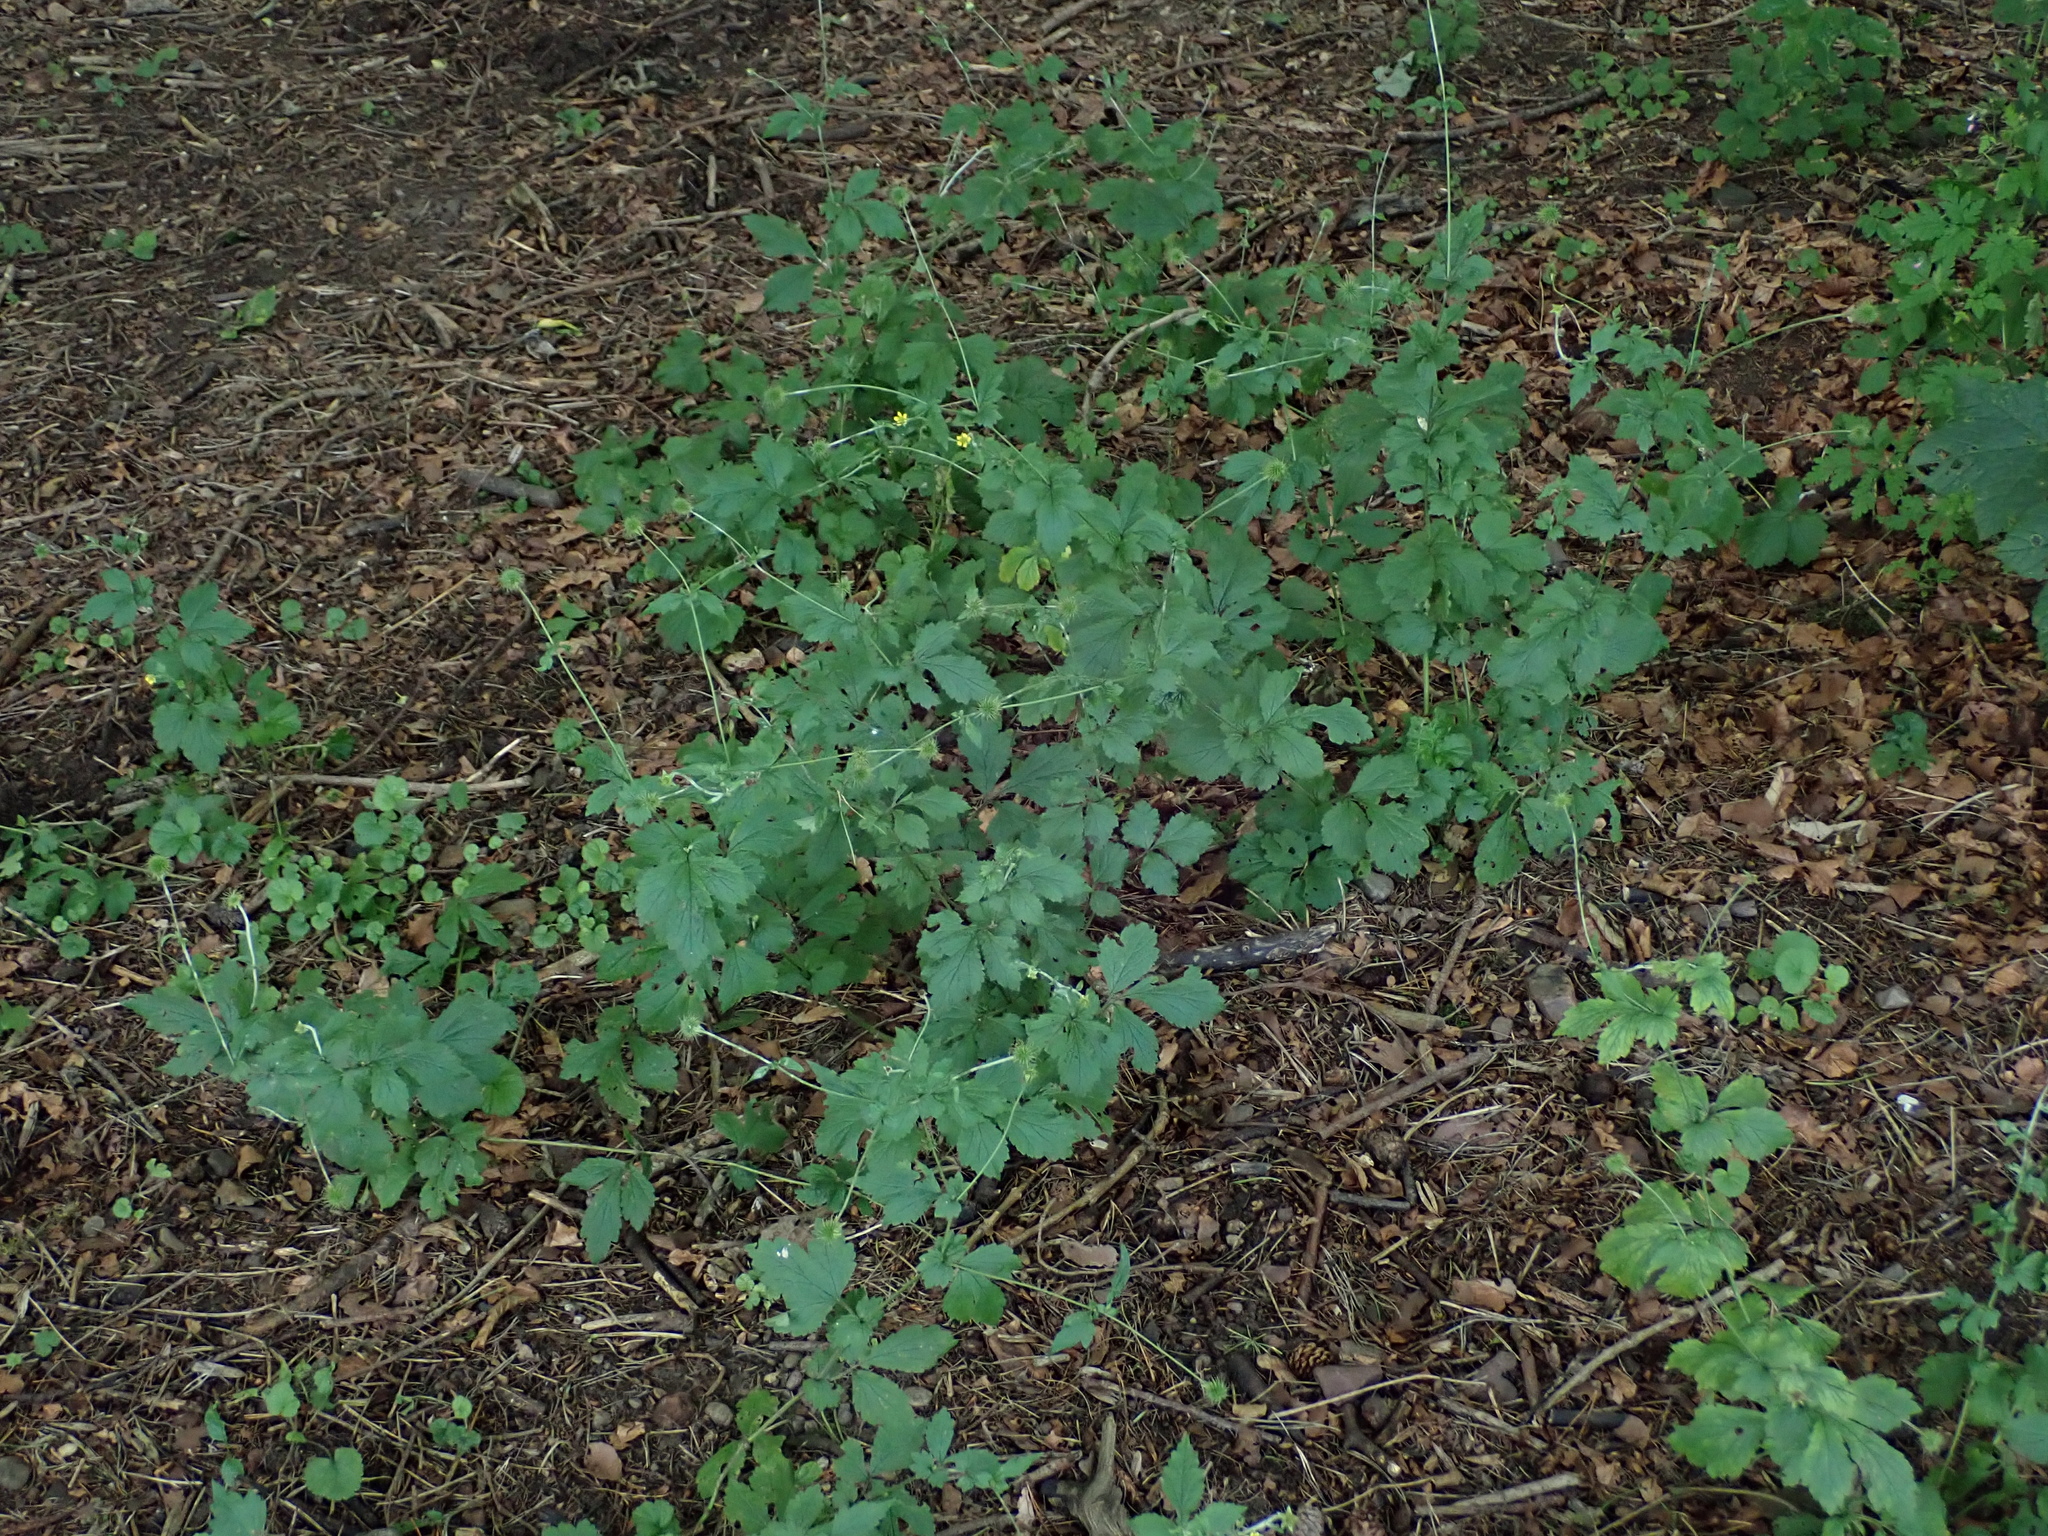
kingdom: Plantae
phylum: Tracheophyta
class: Magnoliopsida
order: Rosales
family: Rosaceae
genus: Geum
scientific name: Geum urbanum
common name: Wood avens
